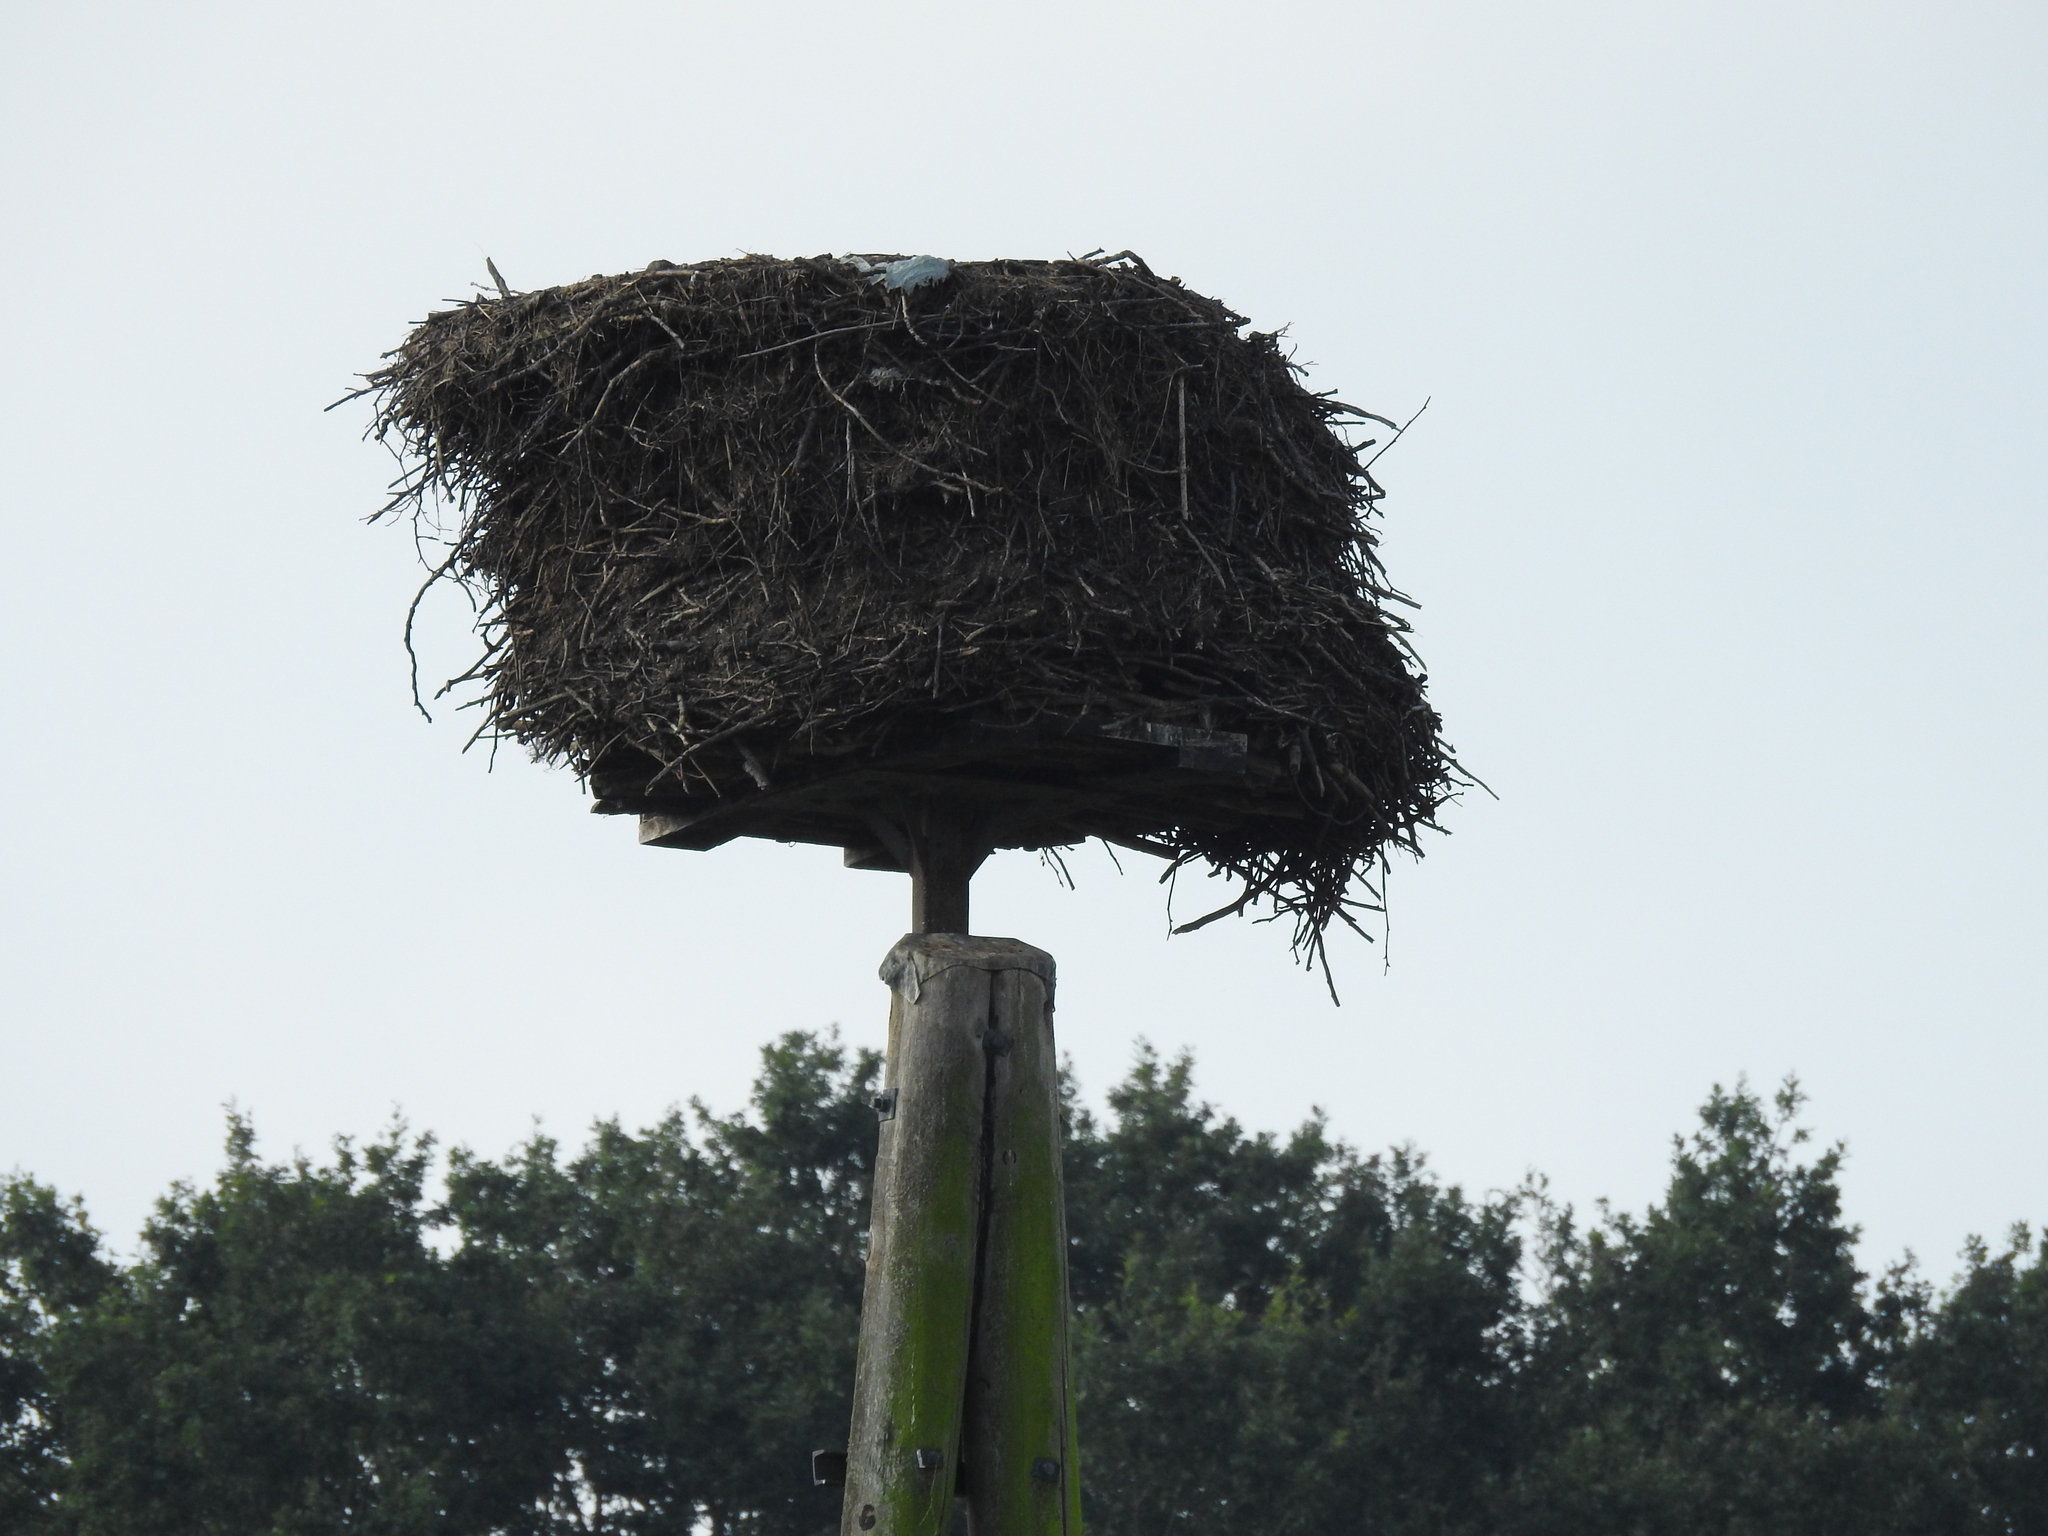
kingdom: Animalia
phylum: Chordata
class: Aves
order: Ciconiiformes
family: Ciconiidae
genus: Ciconia
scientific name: Ciconia ciconia
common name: White stork
